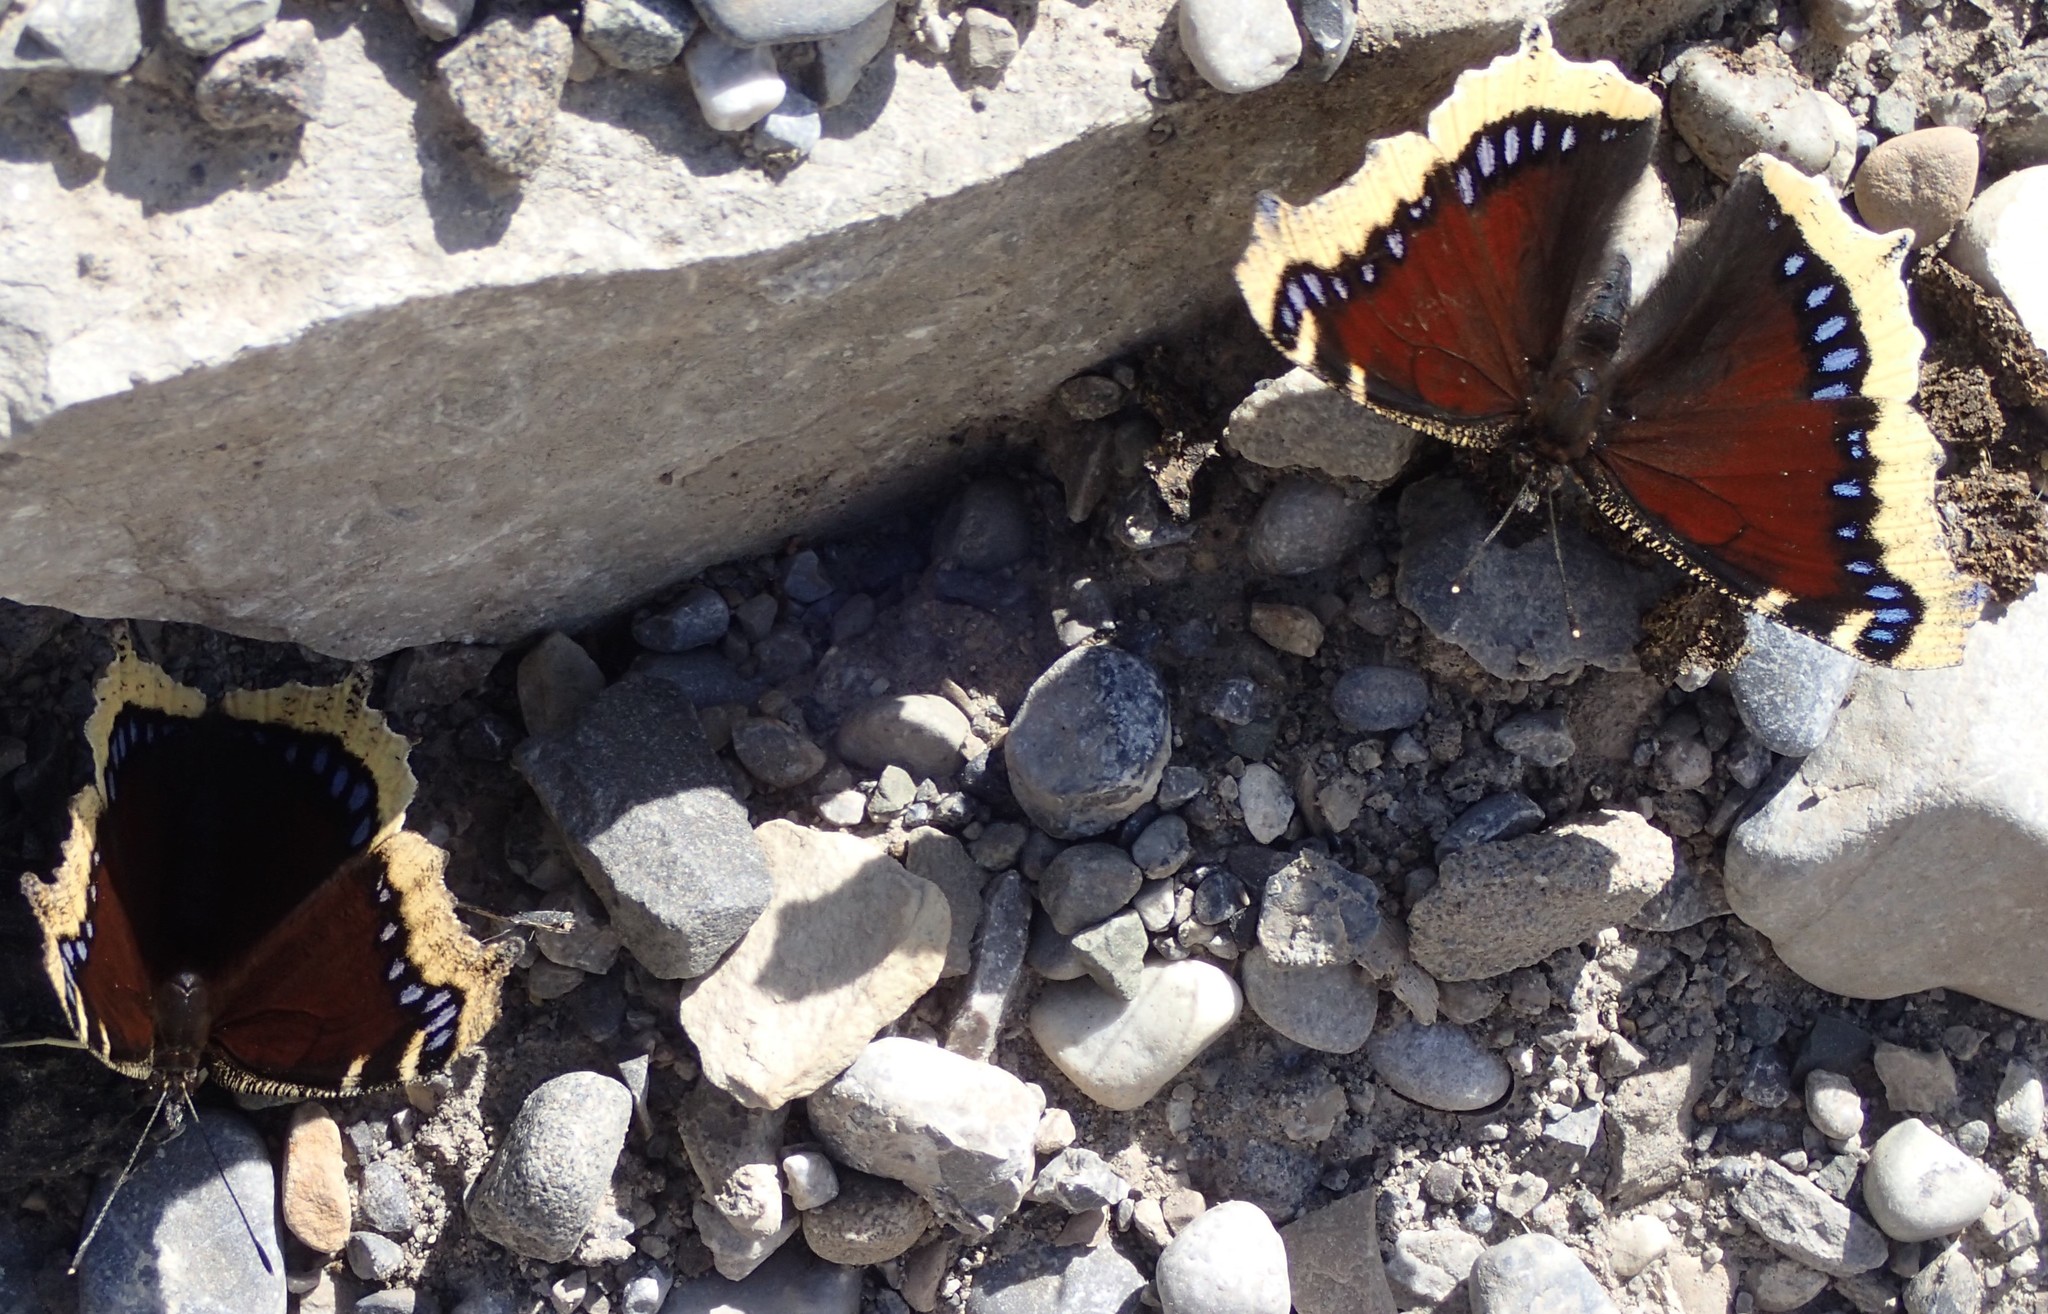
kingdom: Animalia
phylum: Arthropoda
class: Insecta
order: Lepidoptera
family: Nymphalidae
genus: Nymphalis
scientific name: Nymphalis antiopa
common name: Camberwell beauty
